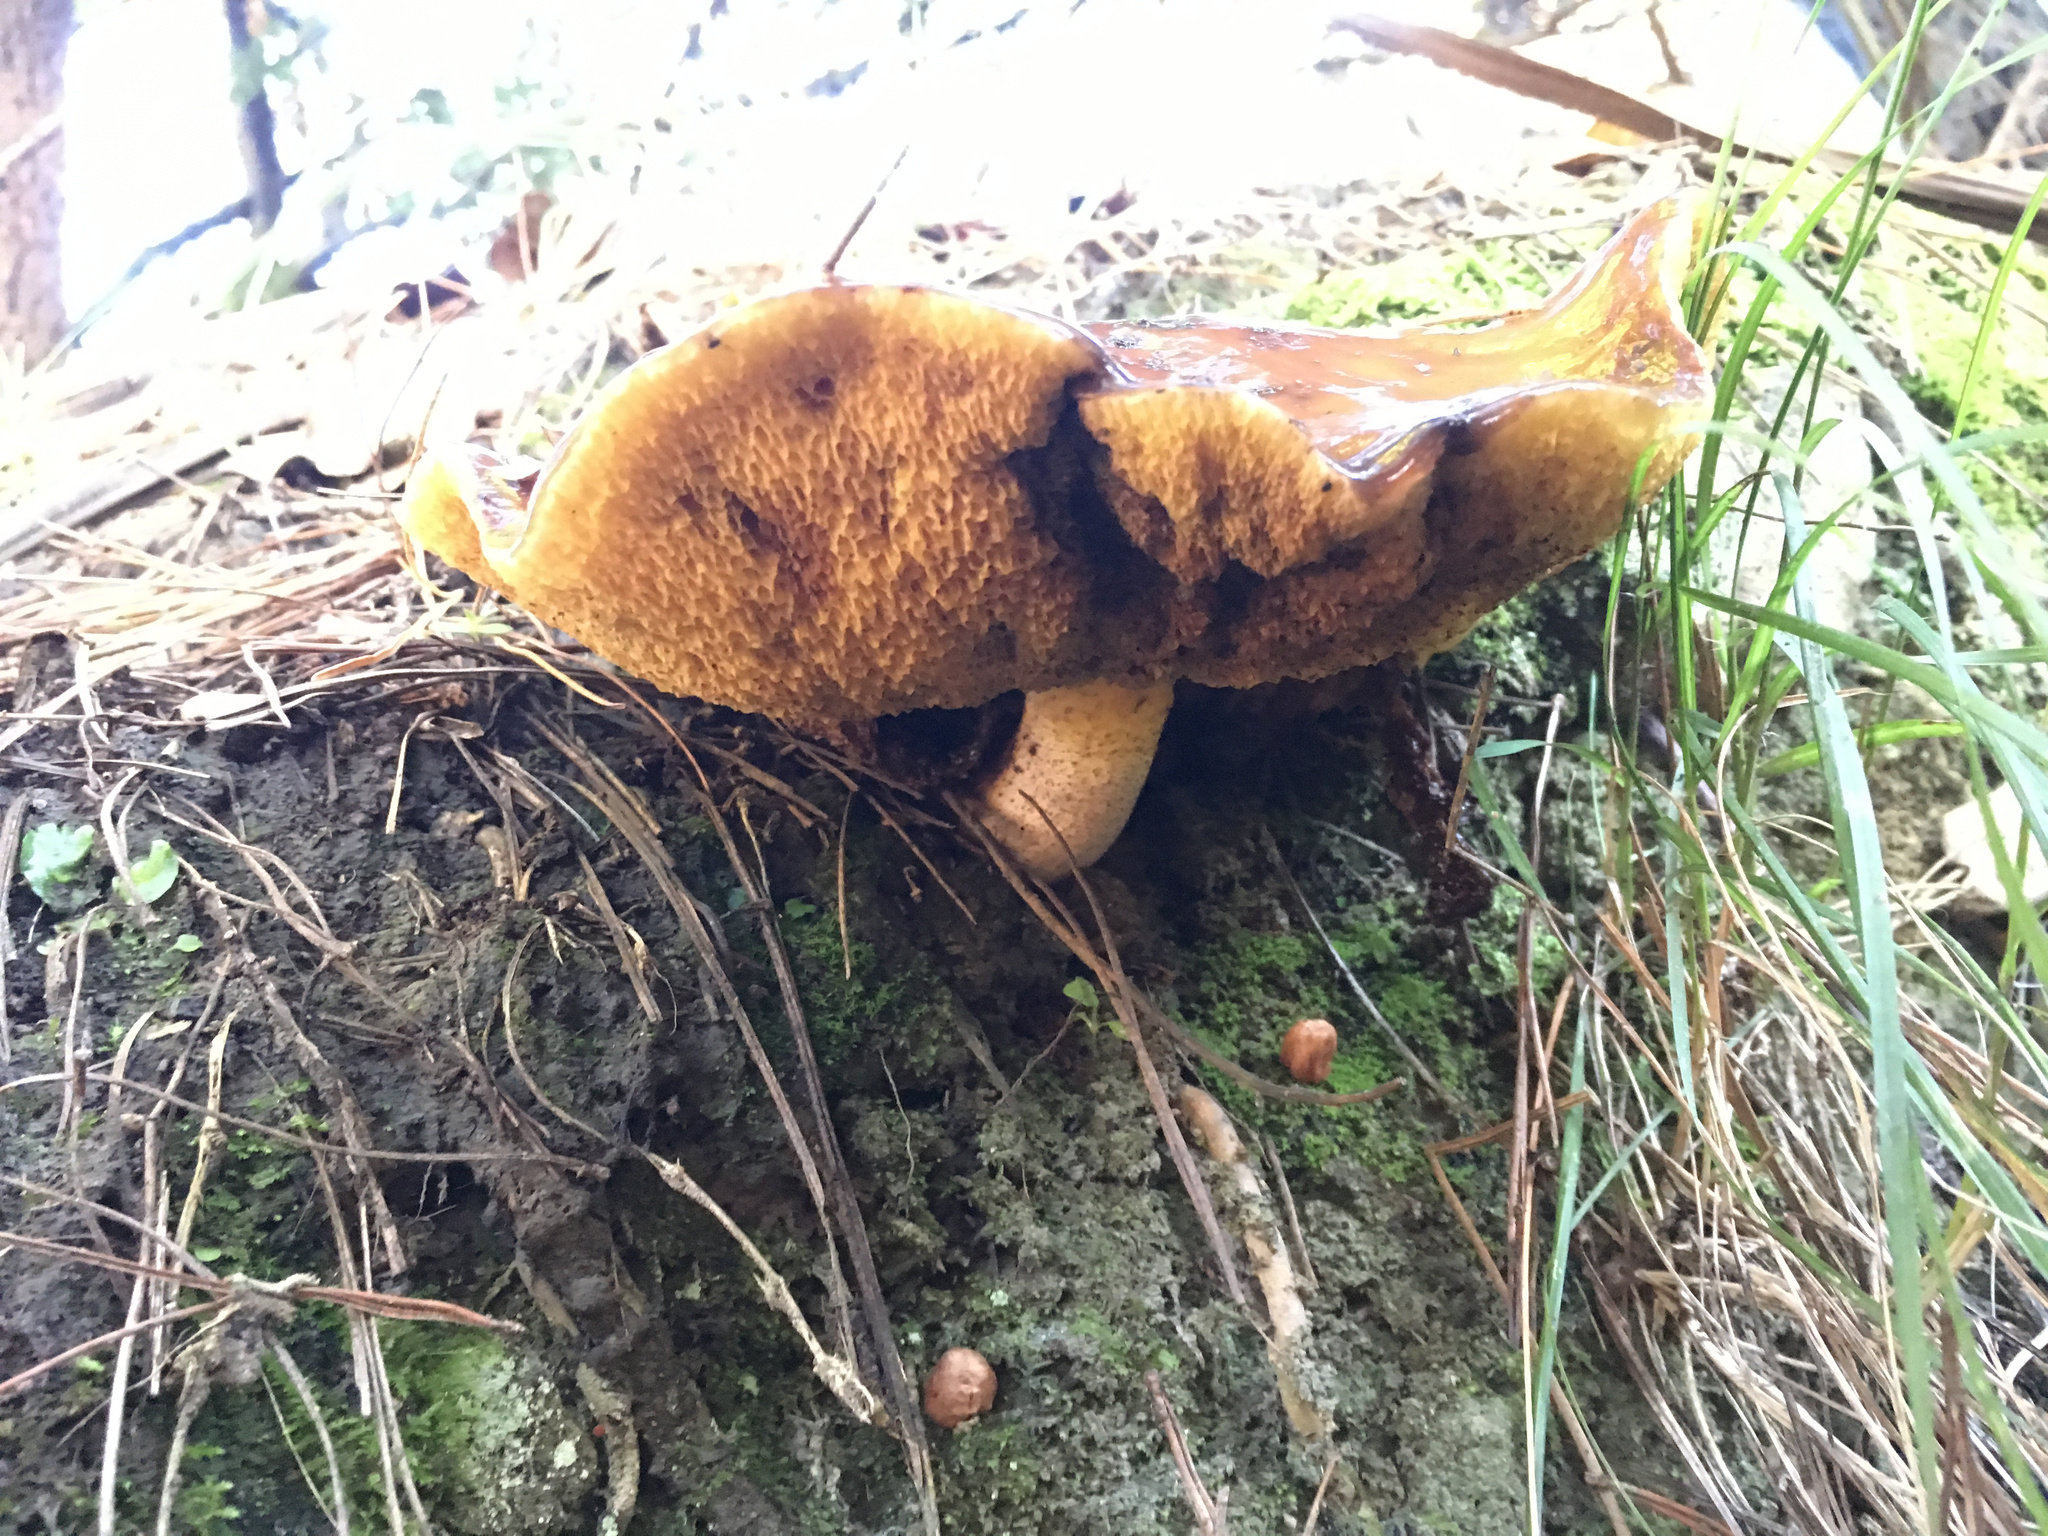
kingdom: Fungi
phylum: Basidiomycota
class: Agaricomycetes
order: Boletales
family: Suillaceae
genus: Suillus
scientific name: Suillus granulatus
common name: Weeping bolete
